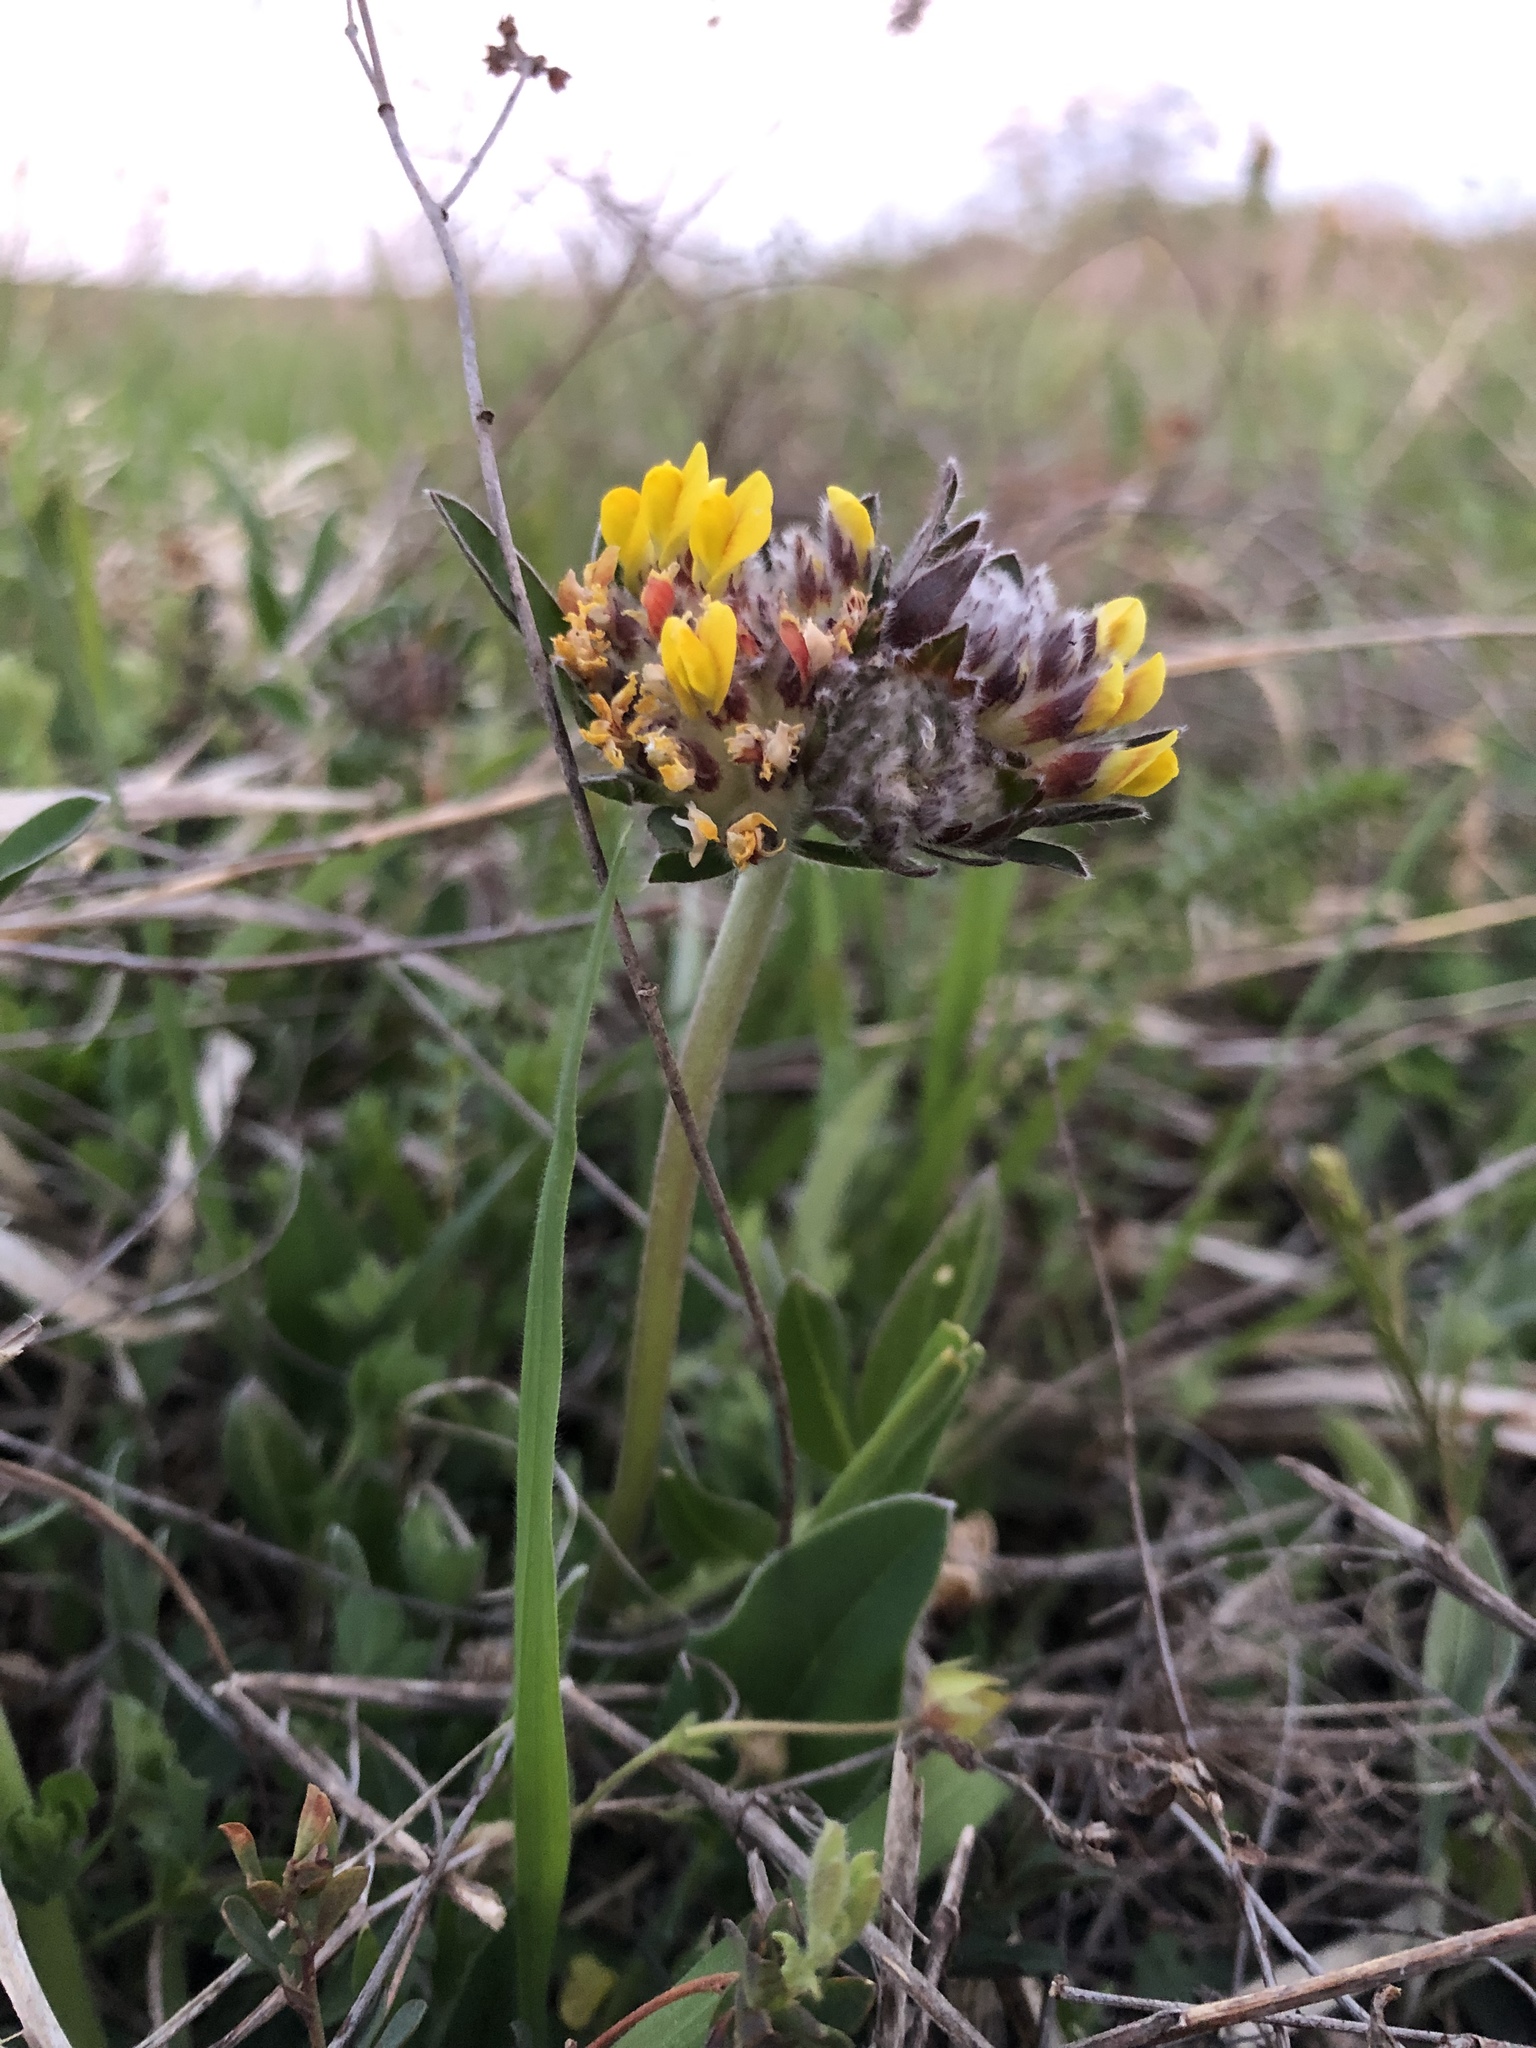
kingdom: Plantae
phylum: Tracheophyta
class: Magnoliopsida
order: Fabales
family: Fabaceae
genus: Anthyllis
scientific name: Anthyllis vulneraria
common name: Kidney vetch
